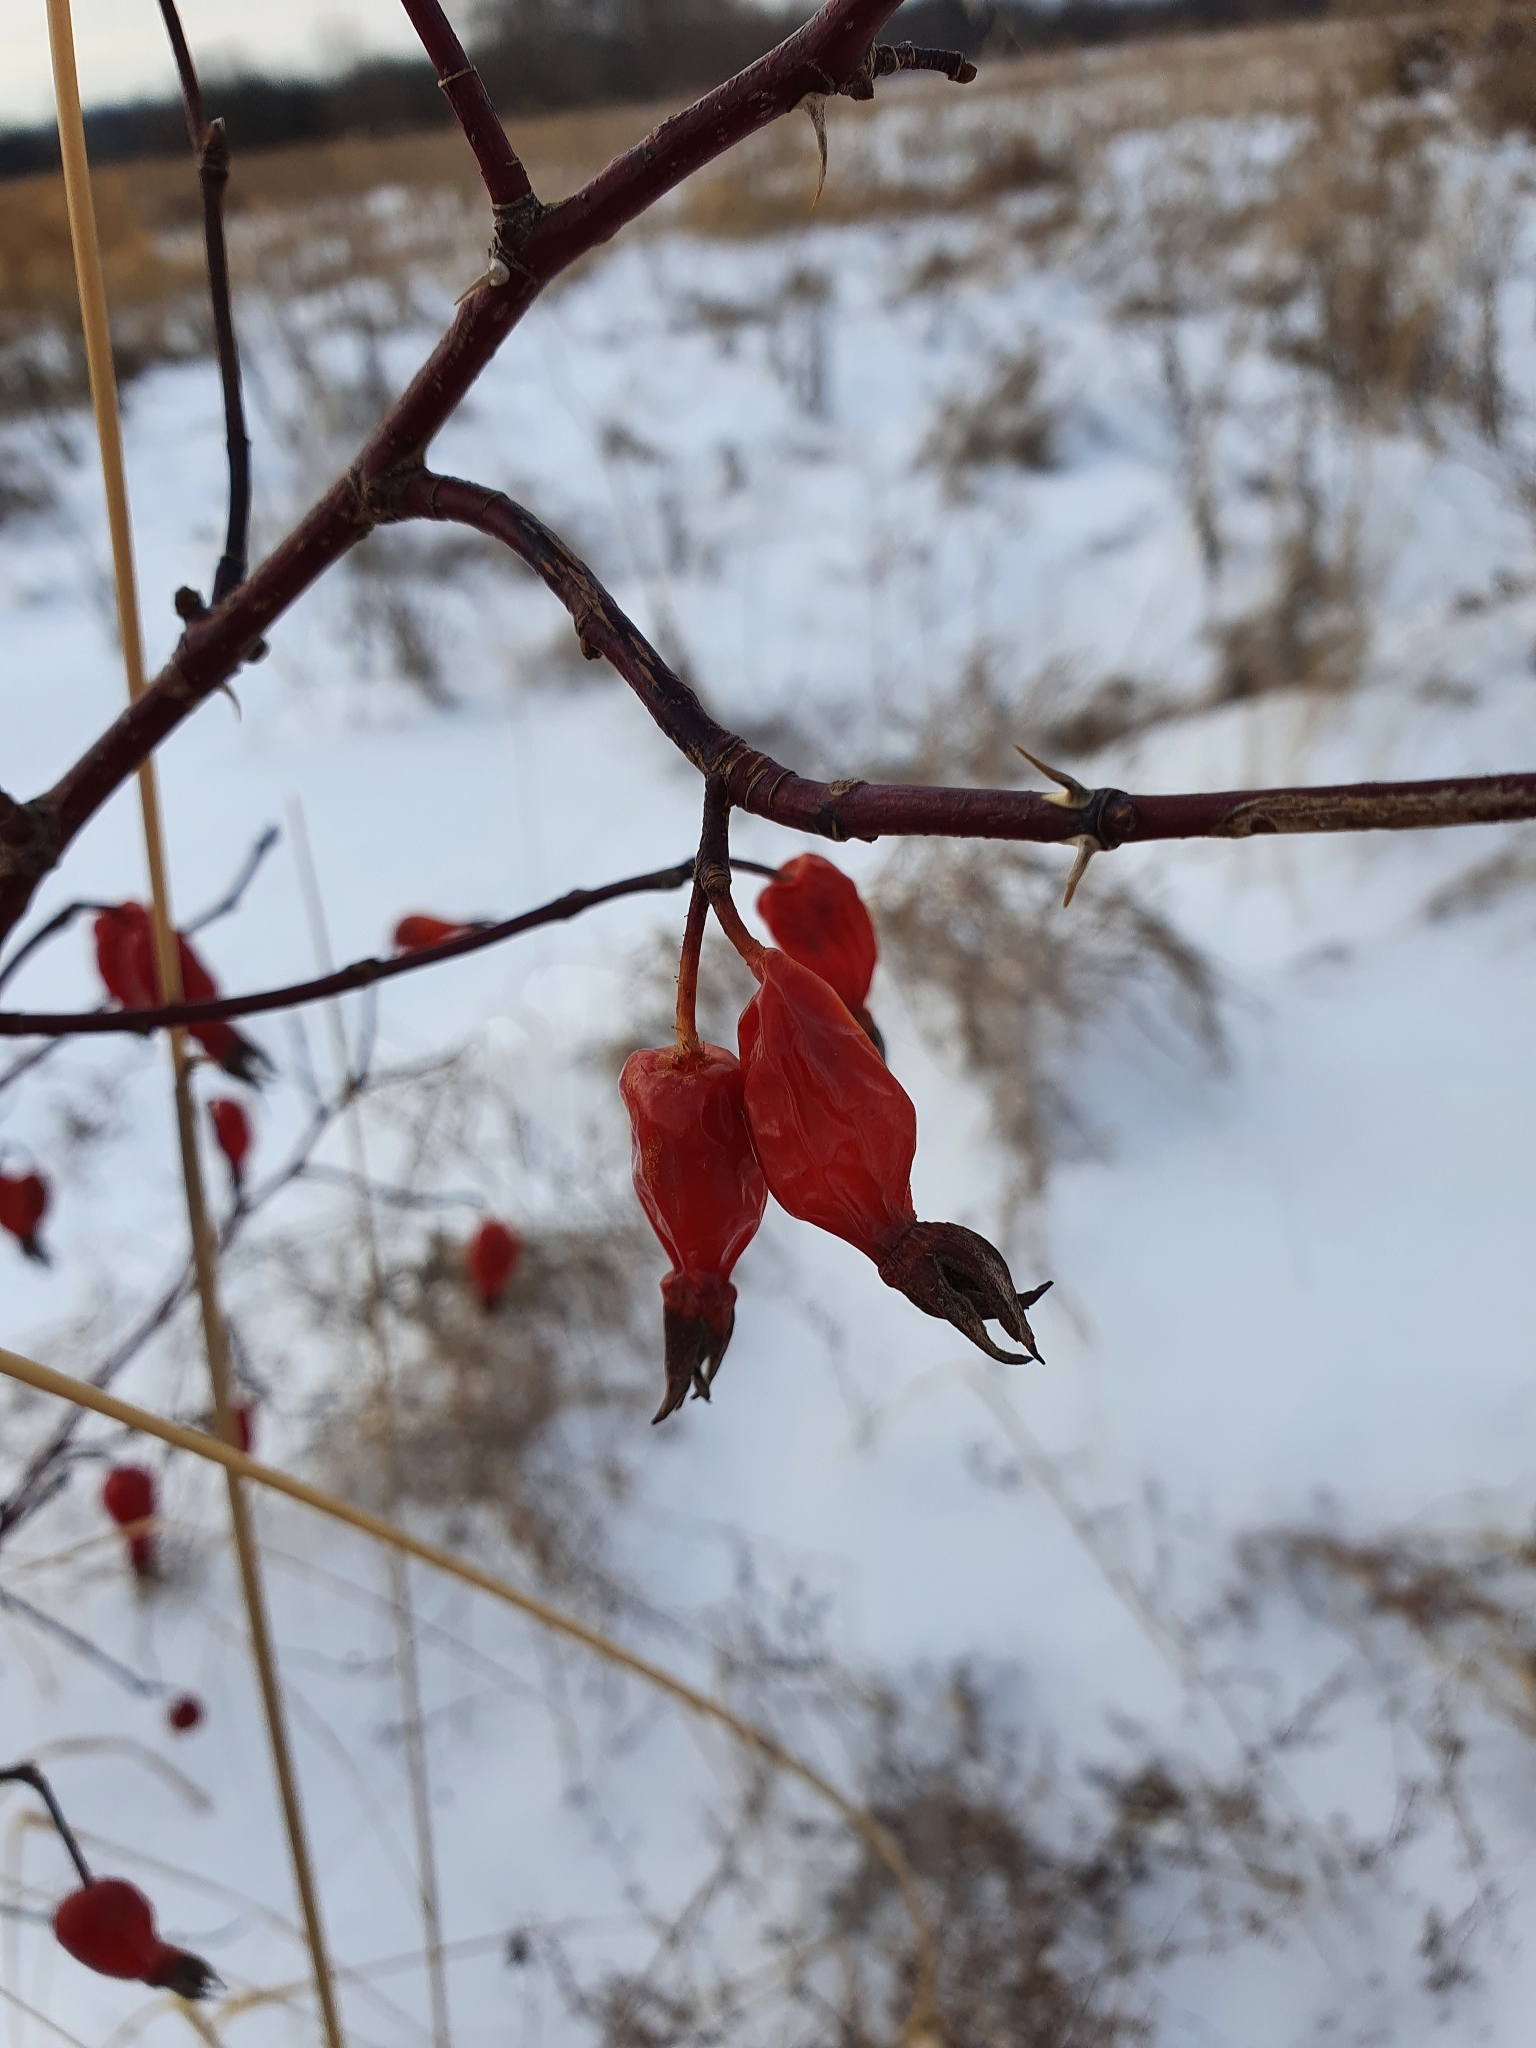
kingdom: Plantae
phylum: Tracheophyta
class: Magnoliopsida
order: Rosales
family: Rosaceae
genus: Rosa
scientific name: Rosa
